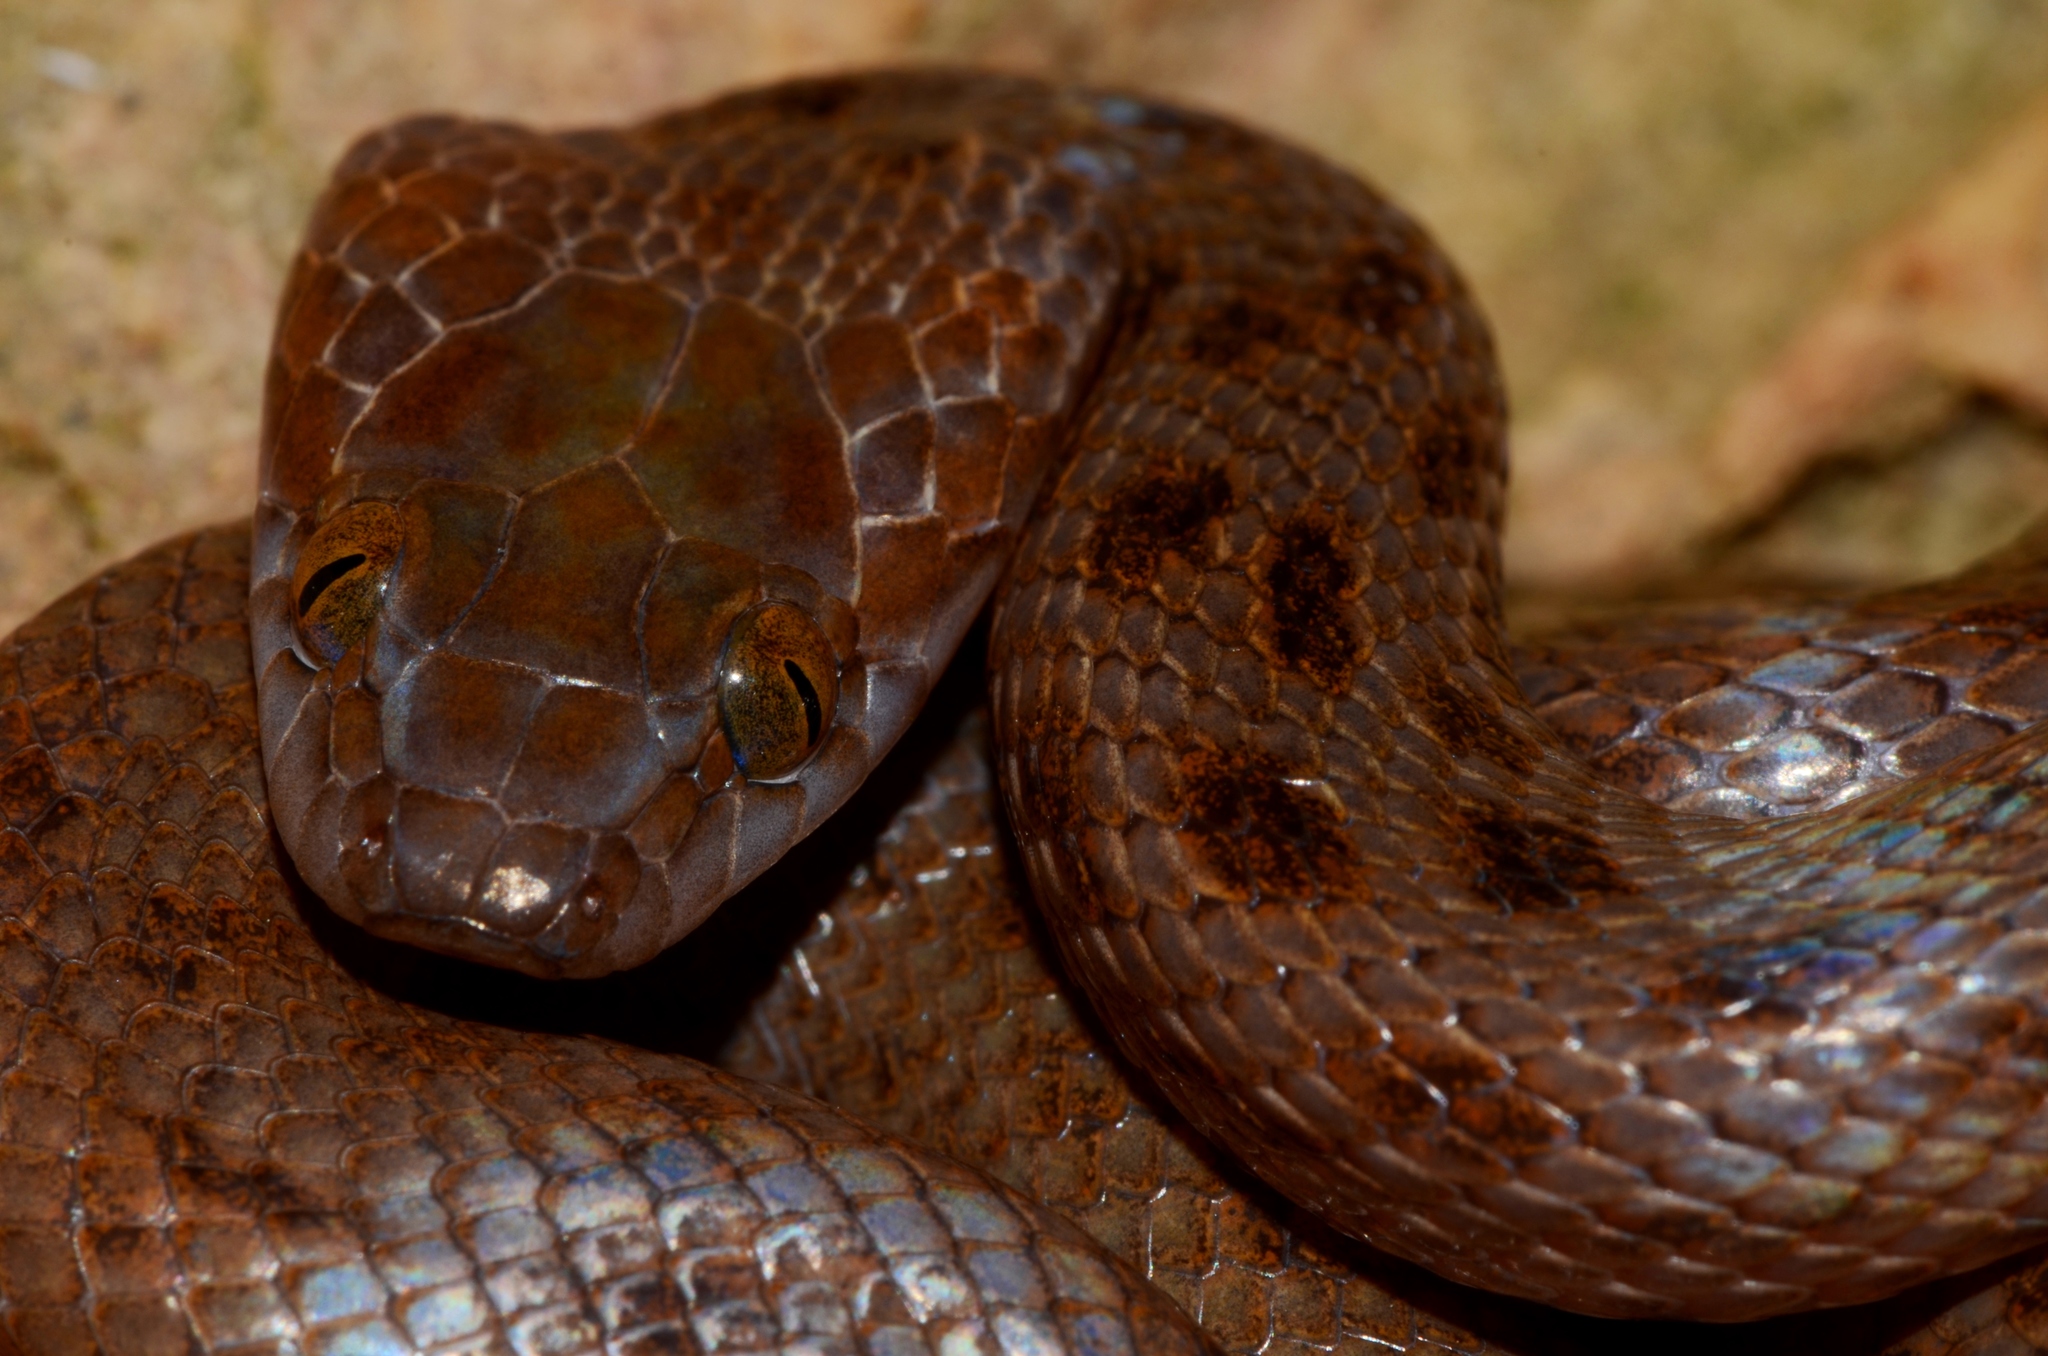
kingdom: Animalia
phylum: Chordata
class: Squamata
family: Lamprophiidae
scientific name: Lamprophiidae
